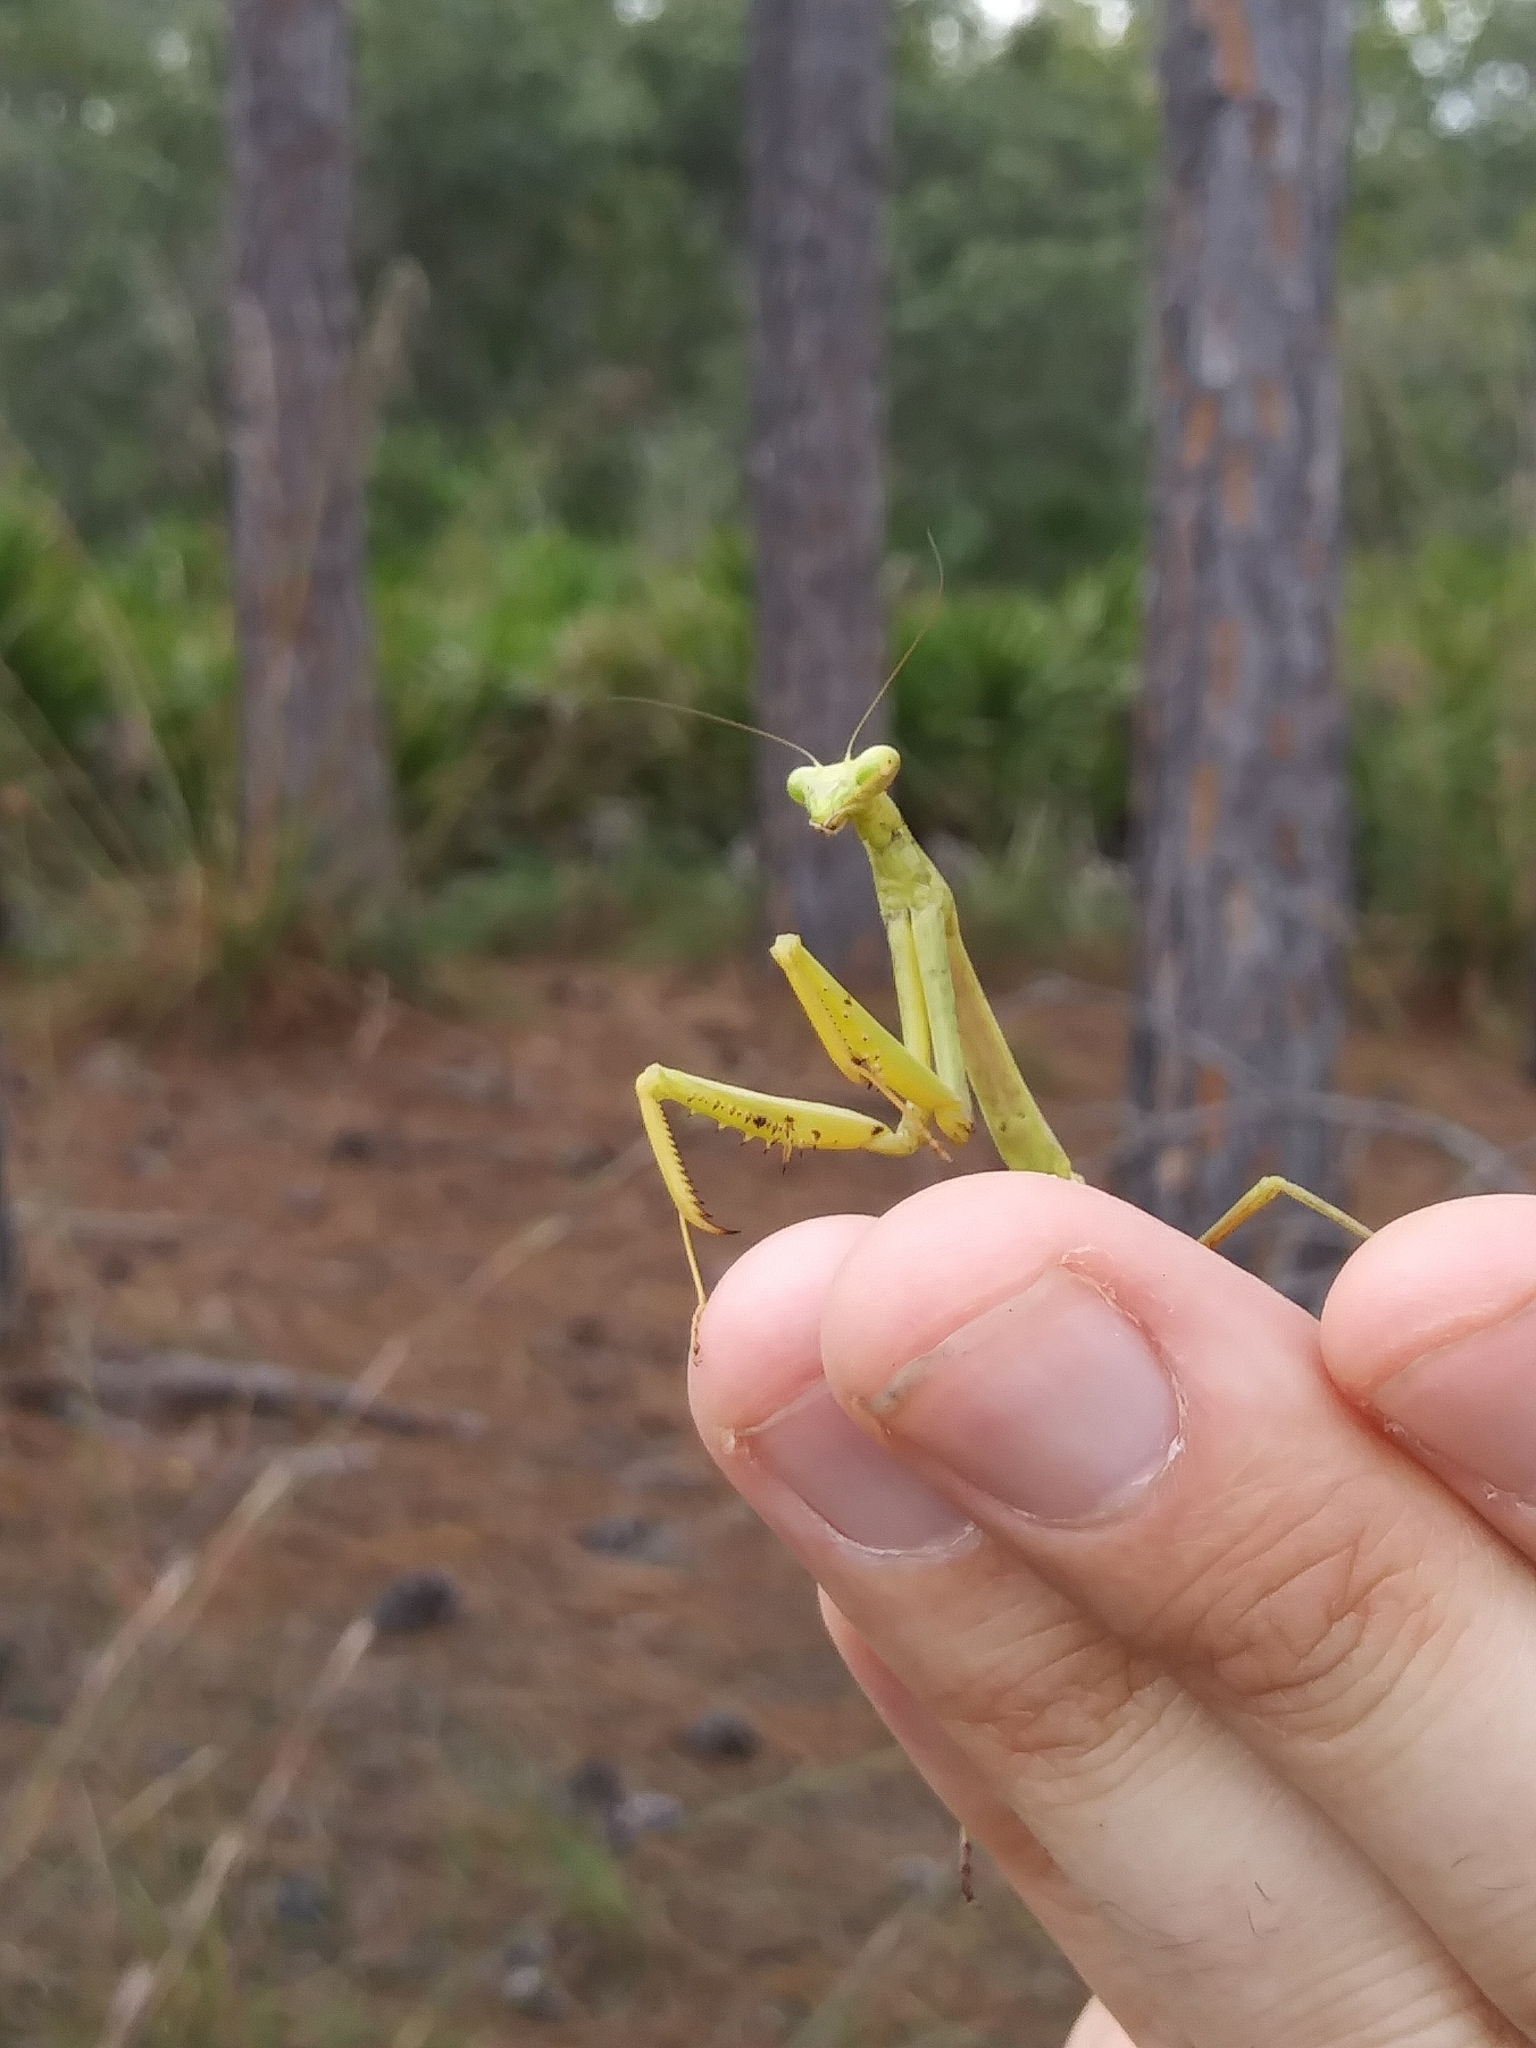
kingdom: Animalia
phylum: Arthropoda
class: Insecta
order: Mantodea
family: Mantidae
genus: Stagmomantis
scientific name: Stagmomantis floridensis
